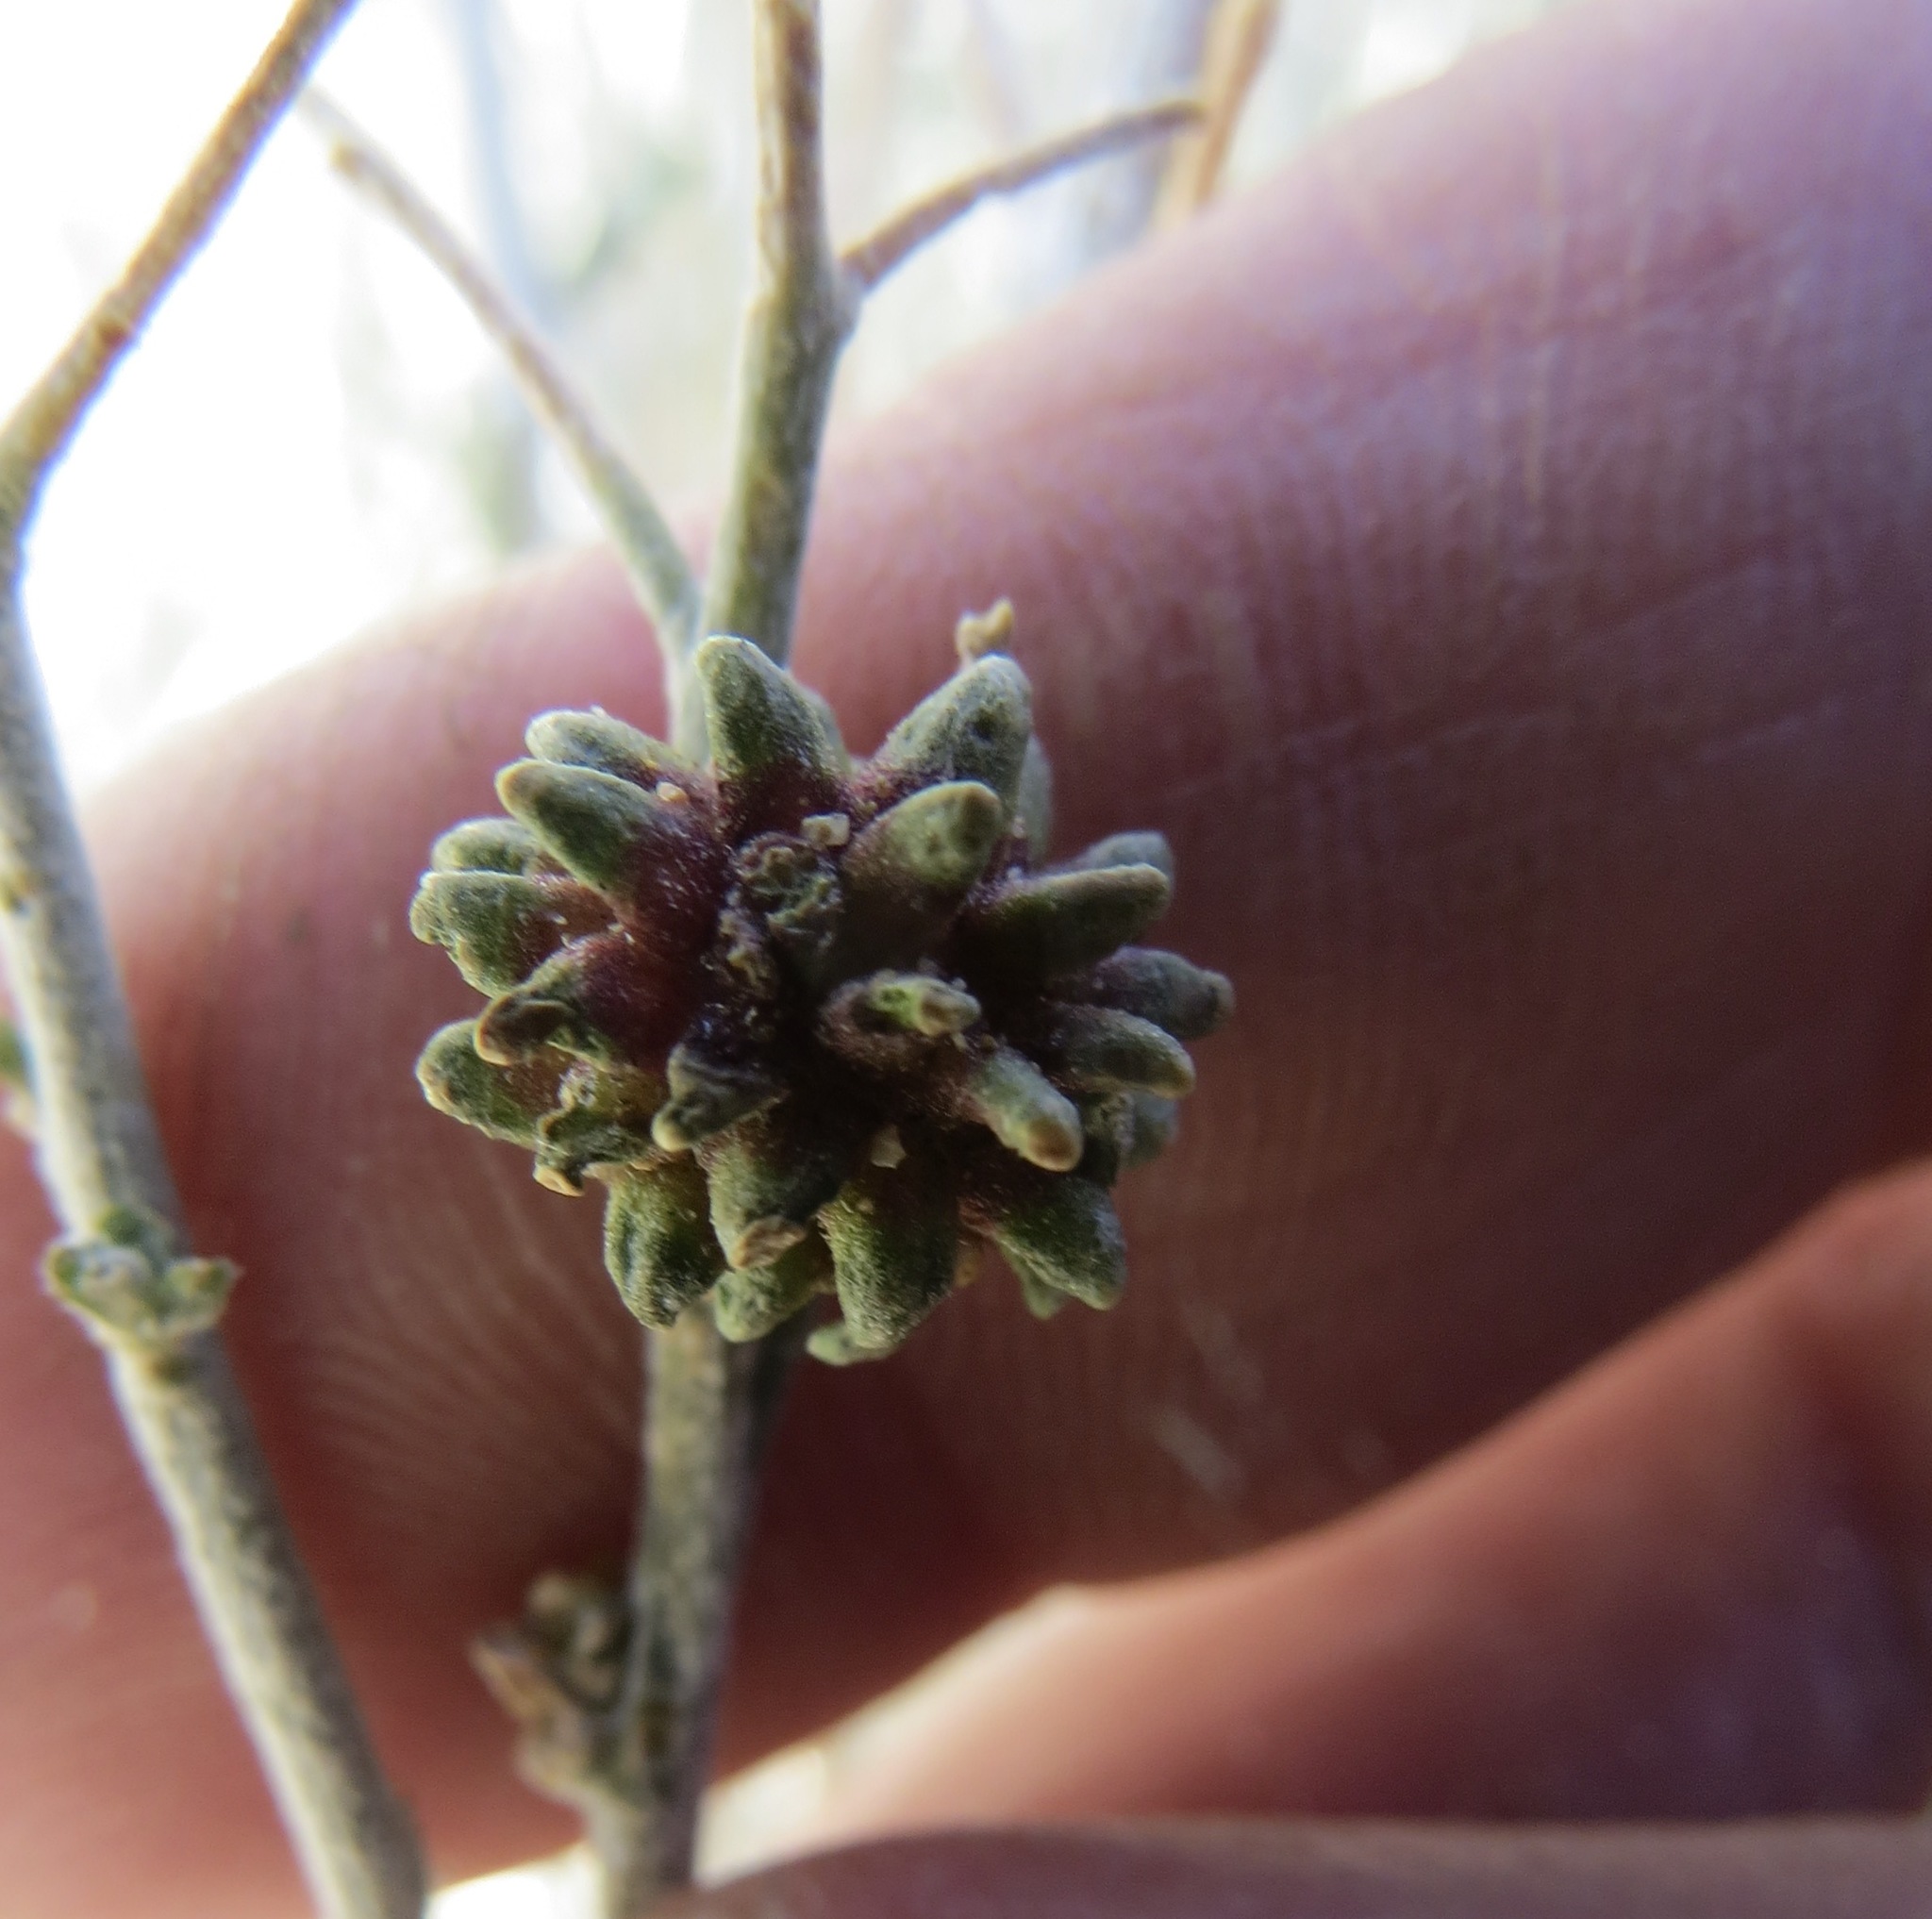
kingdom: Animalia
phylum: Arthropoda
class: Insecta
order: Diptera
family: Cecidomyiidae
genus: Rhopalomyia
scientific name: Rhopalomyia
